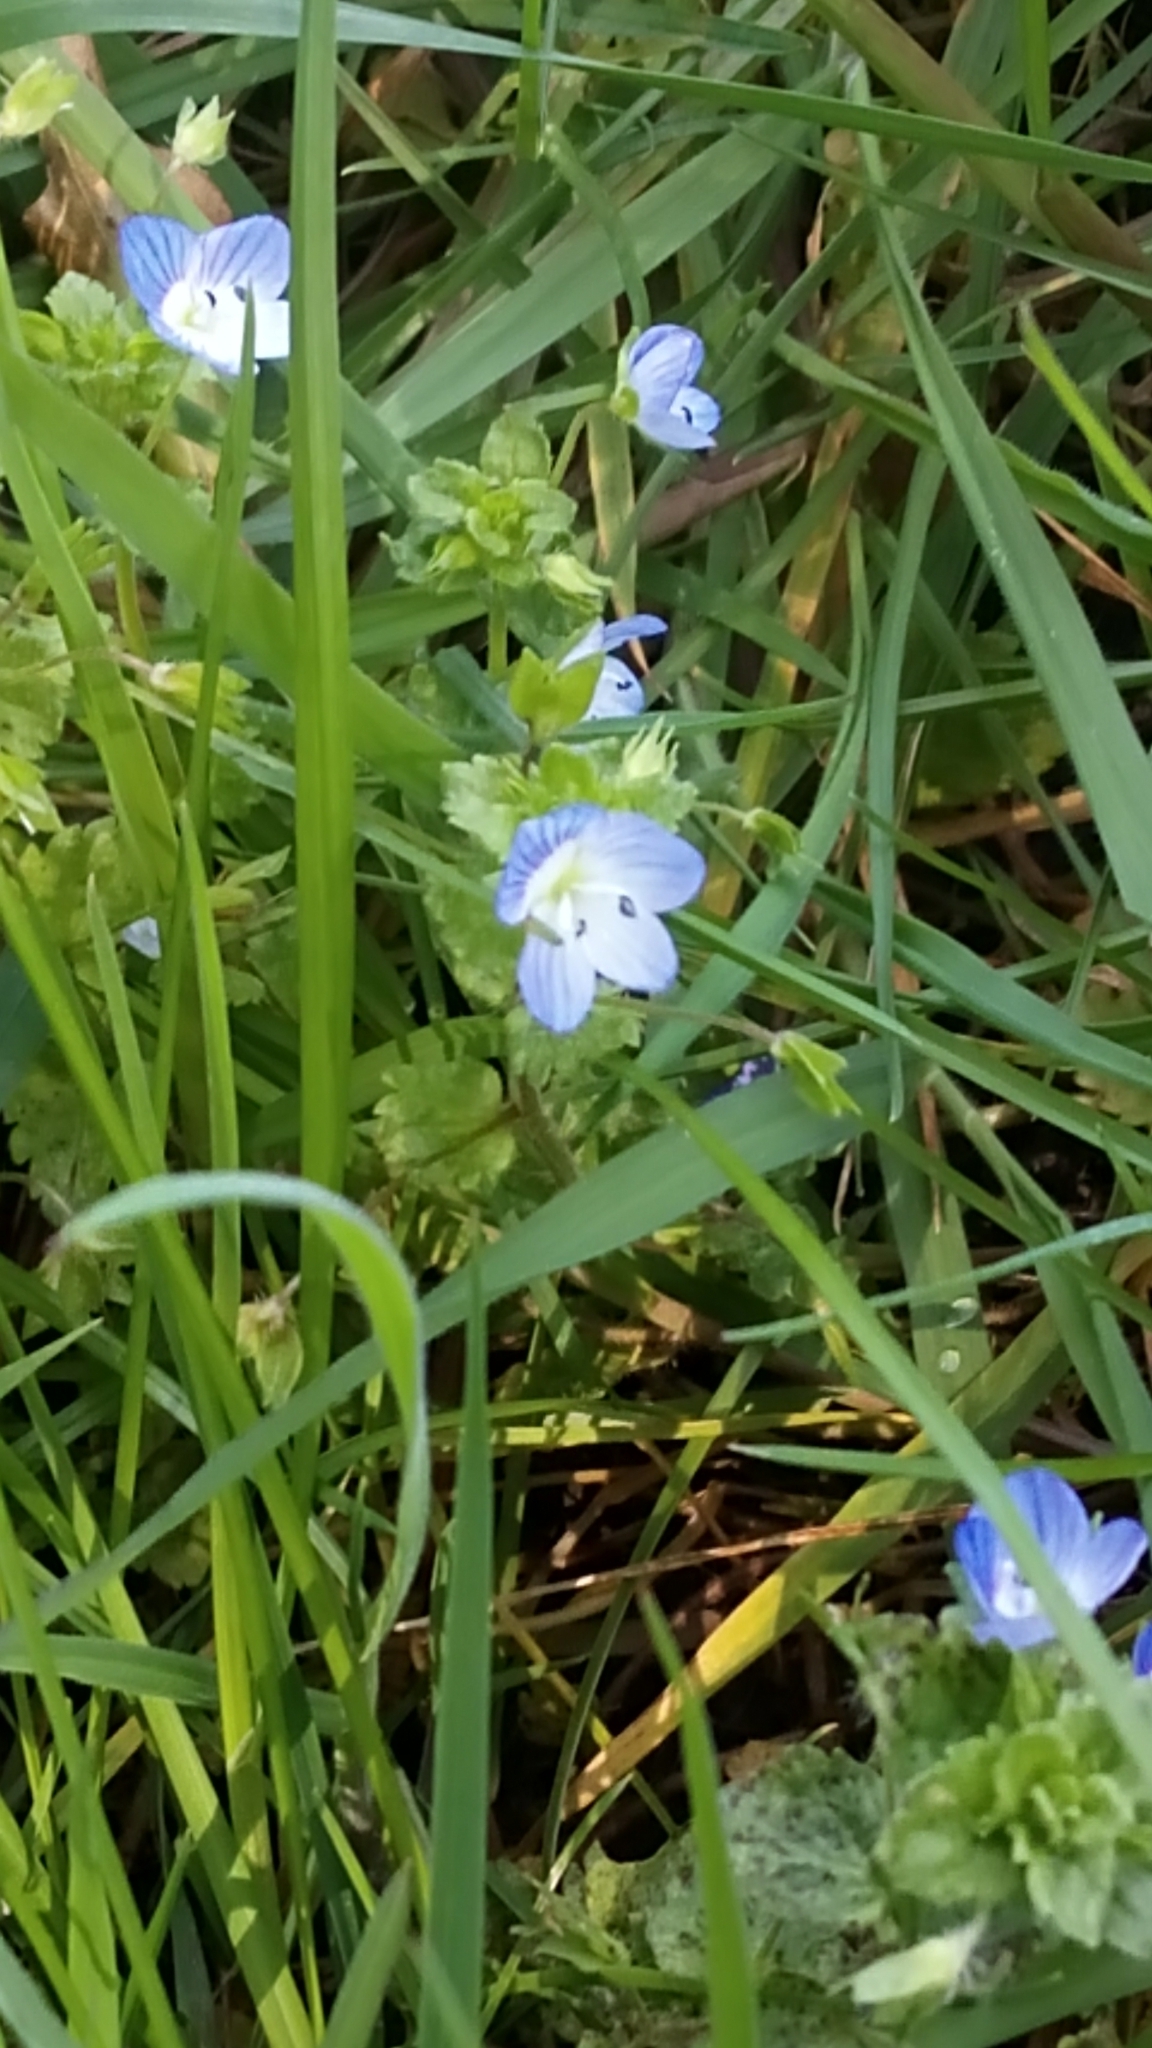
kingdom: Plantae
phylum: Tracheophyta
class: Magnoliopsida
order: Lamiales
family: Plantaginaceae
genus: Veronica
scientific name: Veronica persica
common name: Common field-speedwell
